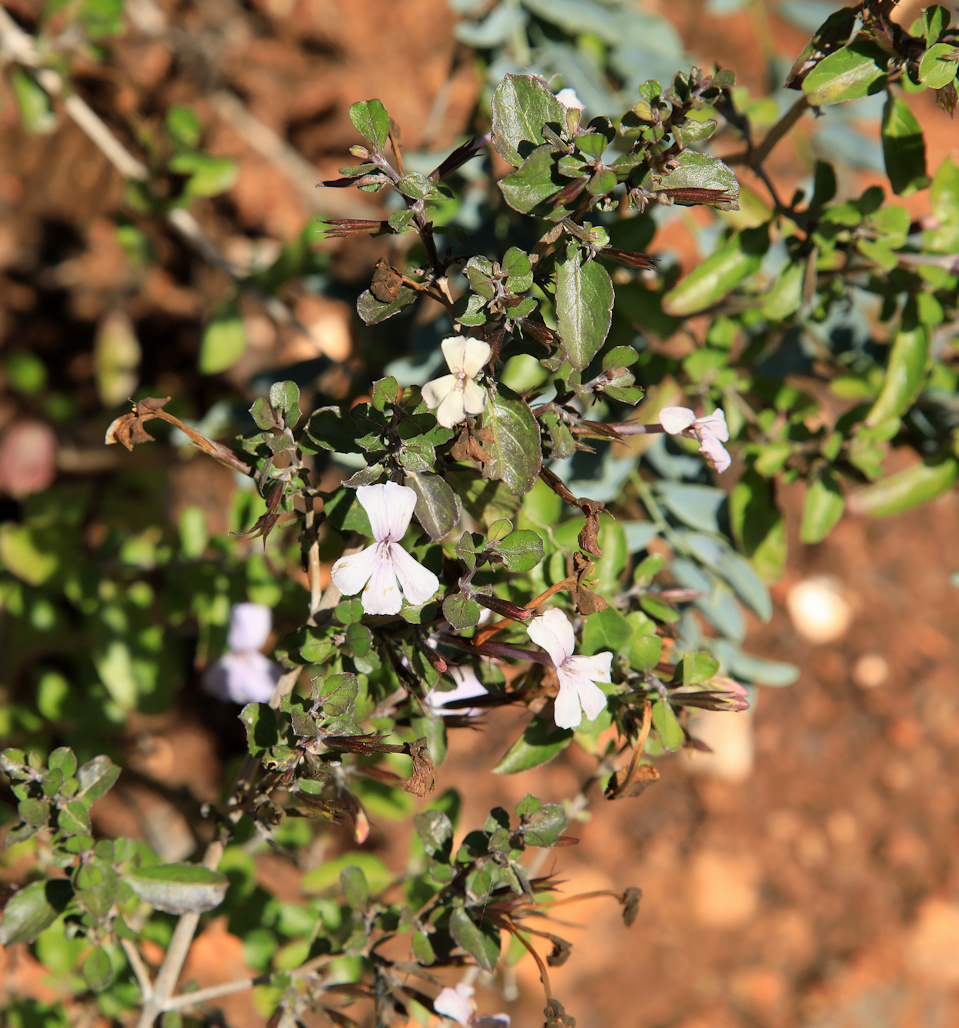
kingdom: Plantae
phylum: Tracheophyta
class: Magnoliopsida
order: Lamiales
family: Acanthaceae
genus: Dyschoriste
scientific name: Dyschoriste hildebrandtii
